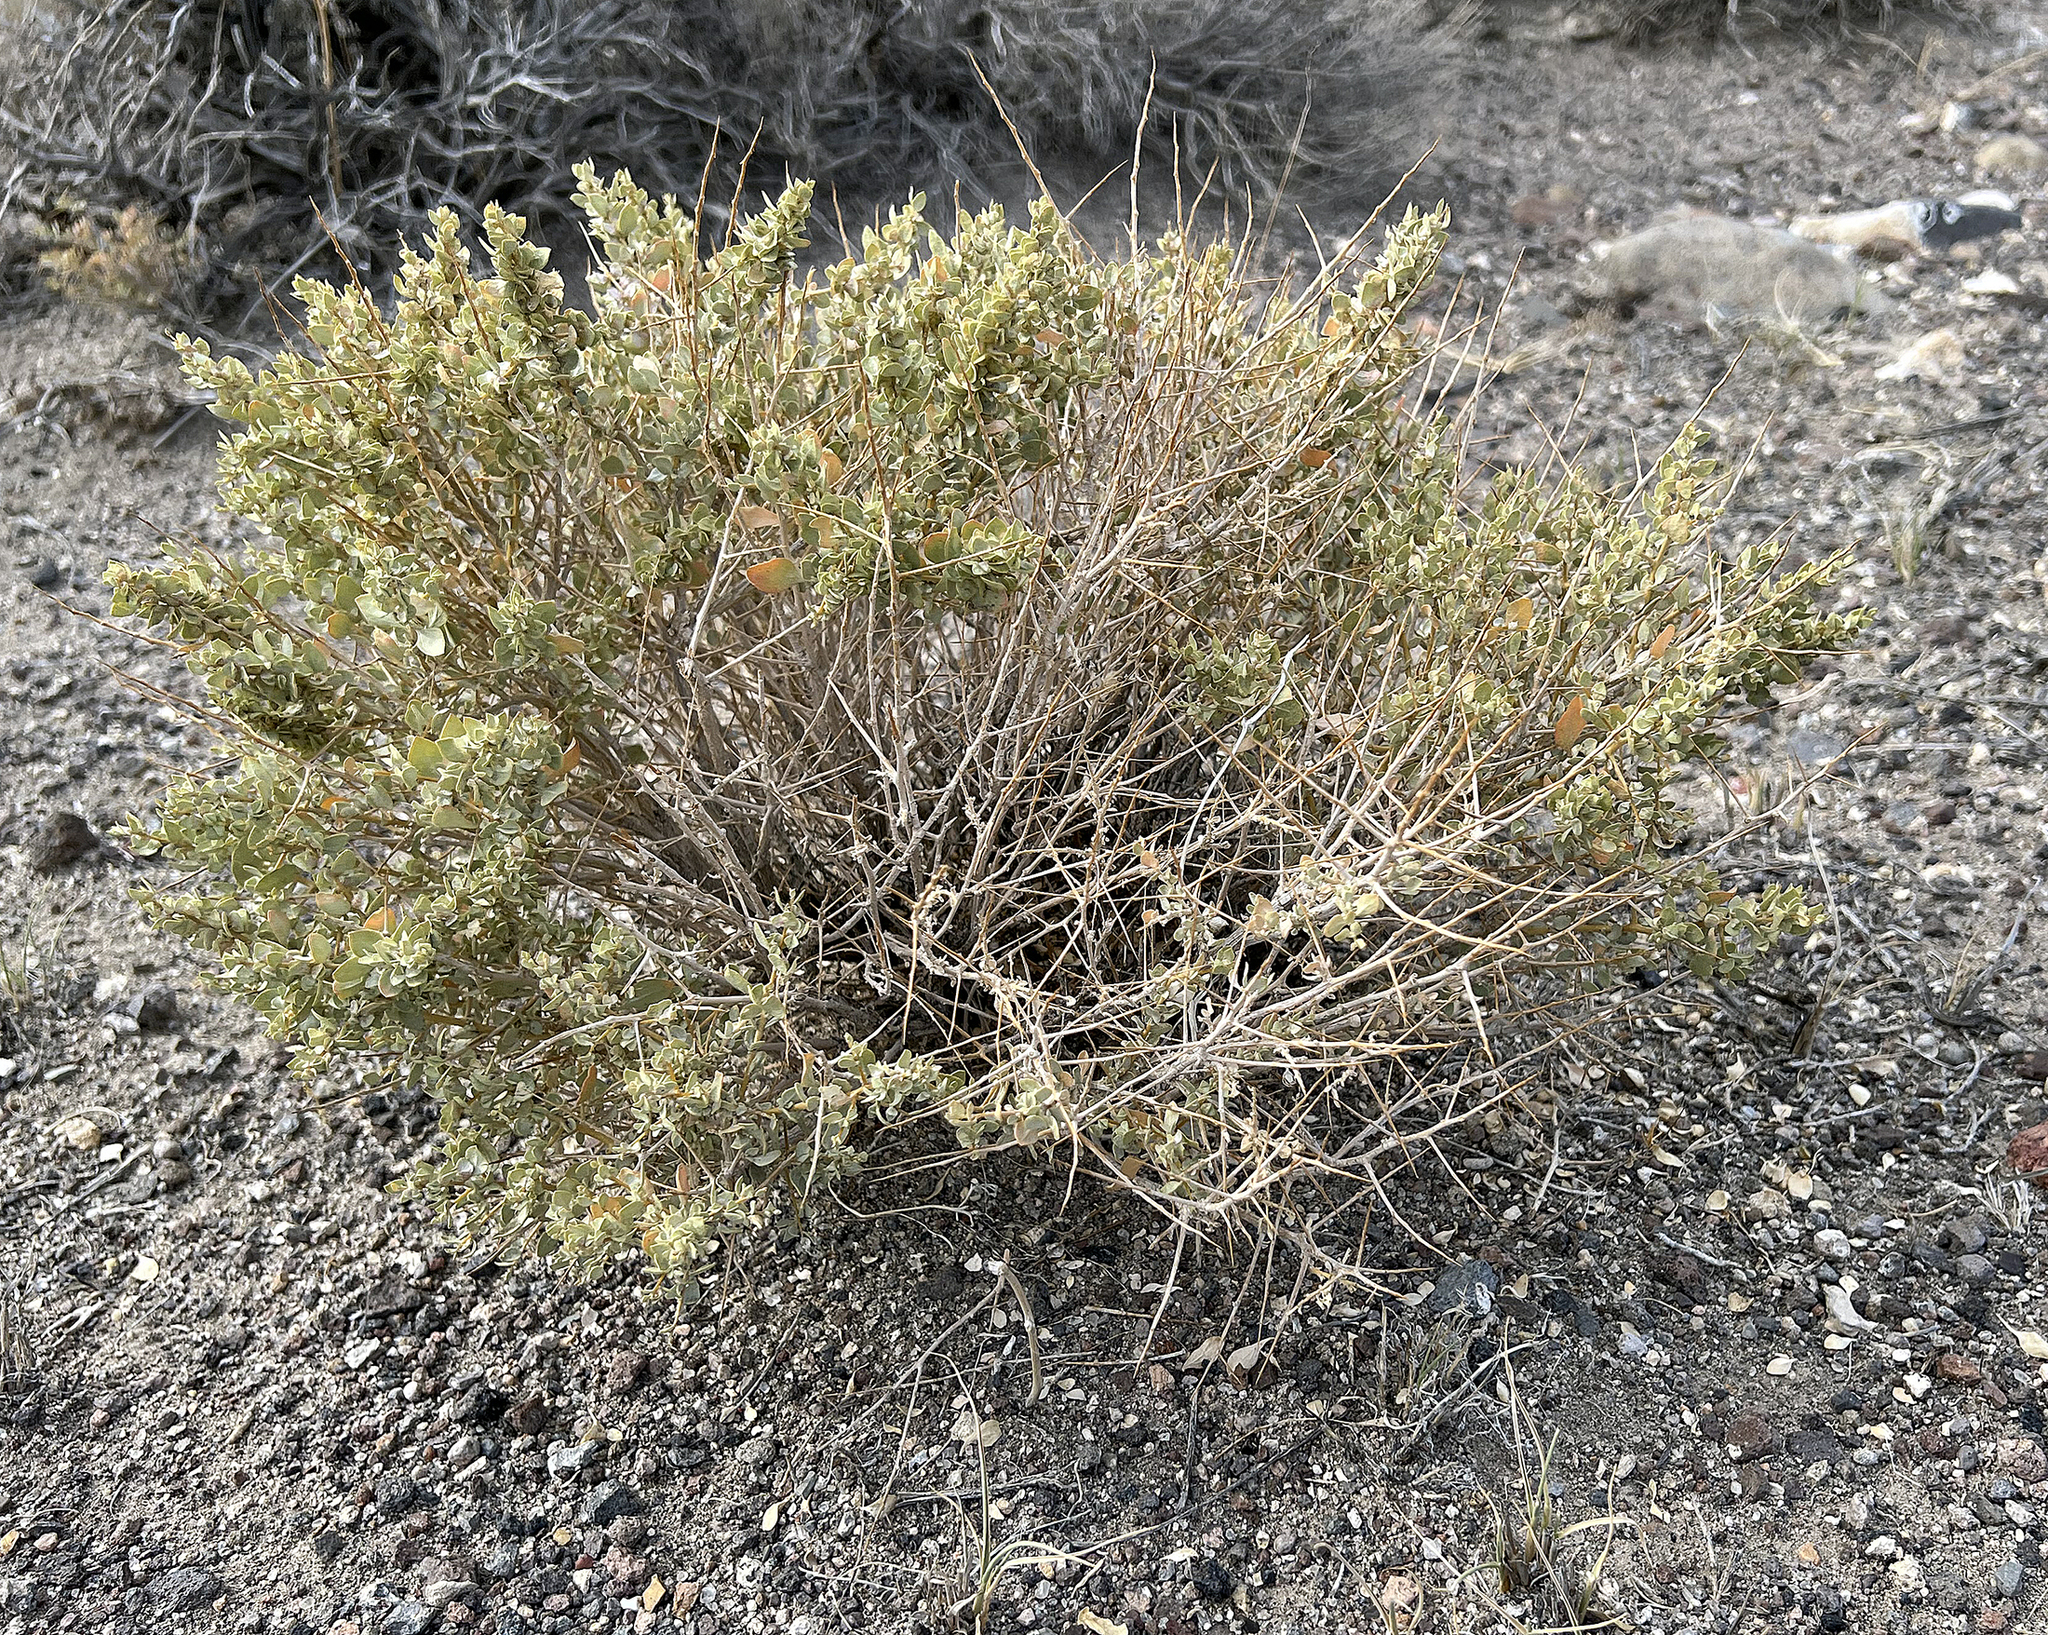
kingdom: Plantae
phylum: Tracheophyta
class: Magnoliopsida
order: Caryophyllales
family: Amaranthaceae
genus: Atriplex
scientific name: Atriplex confertifolia
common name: Shadscale
